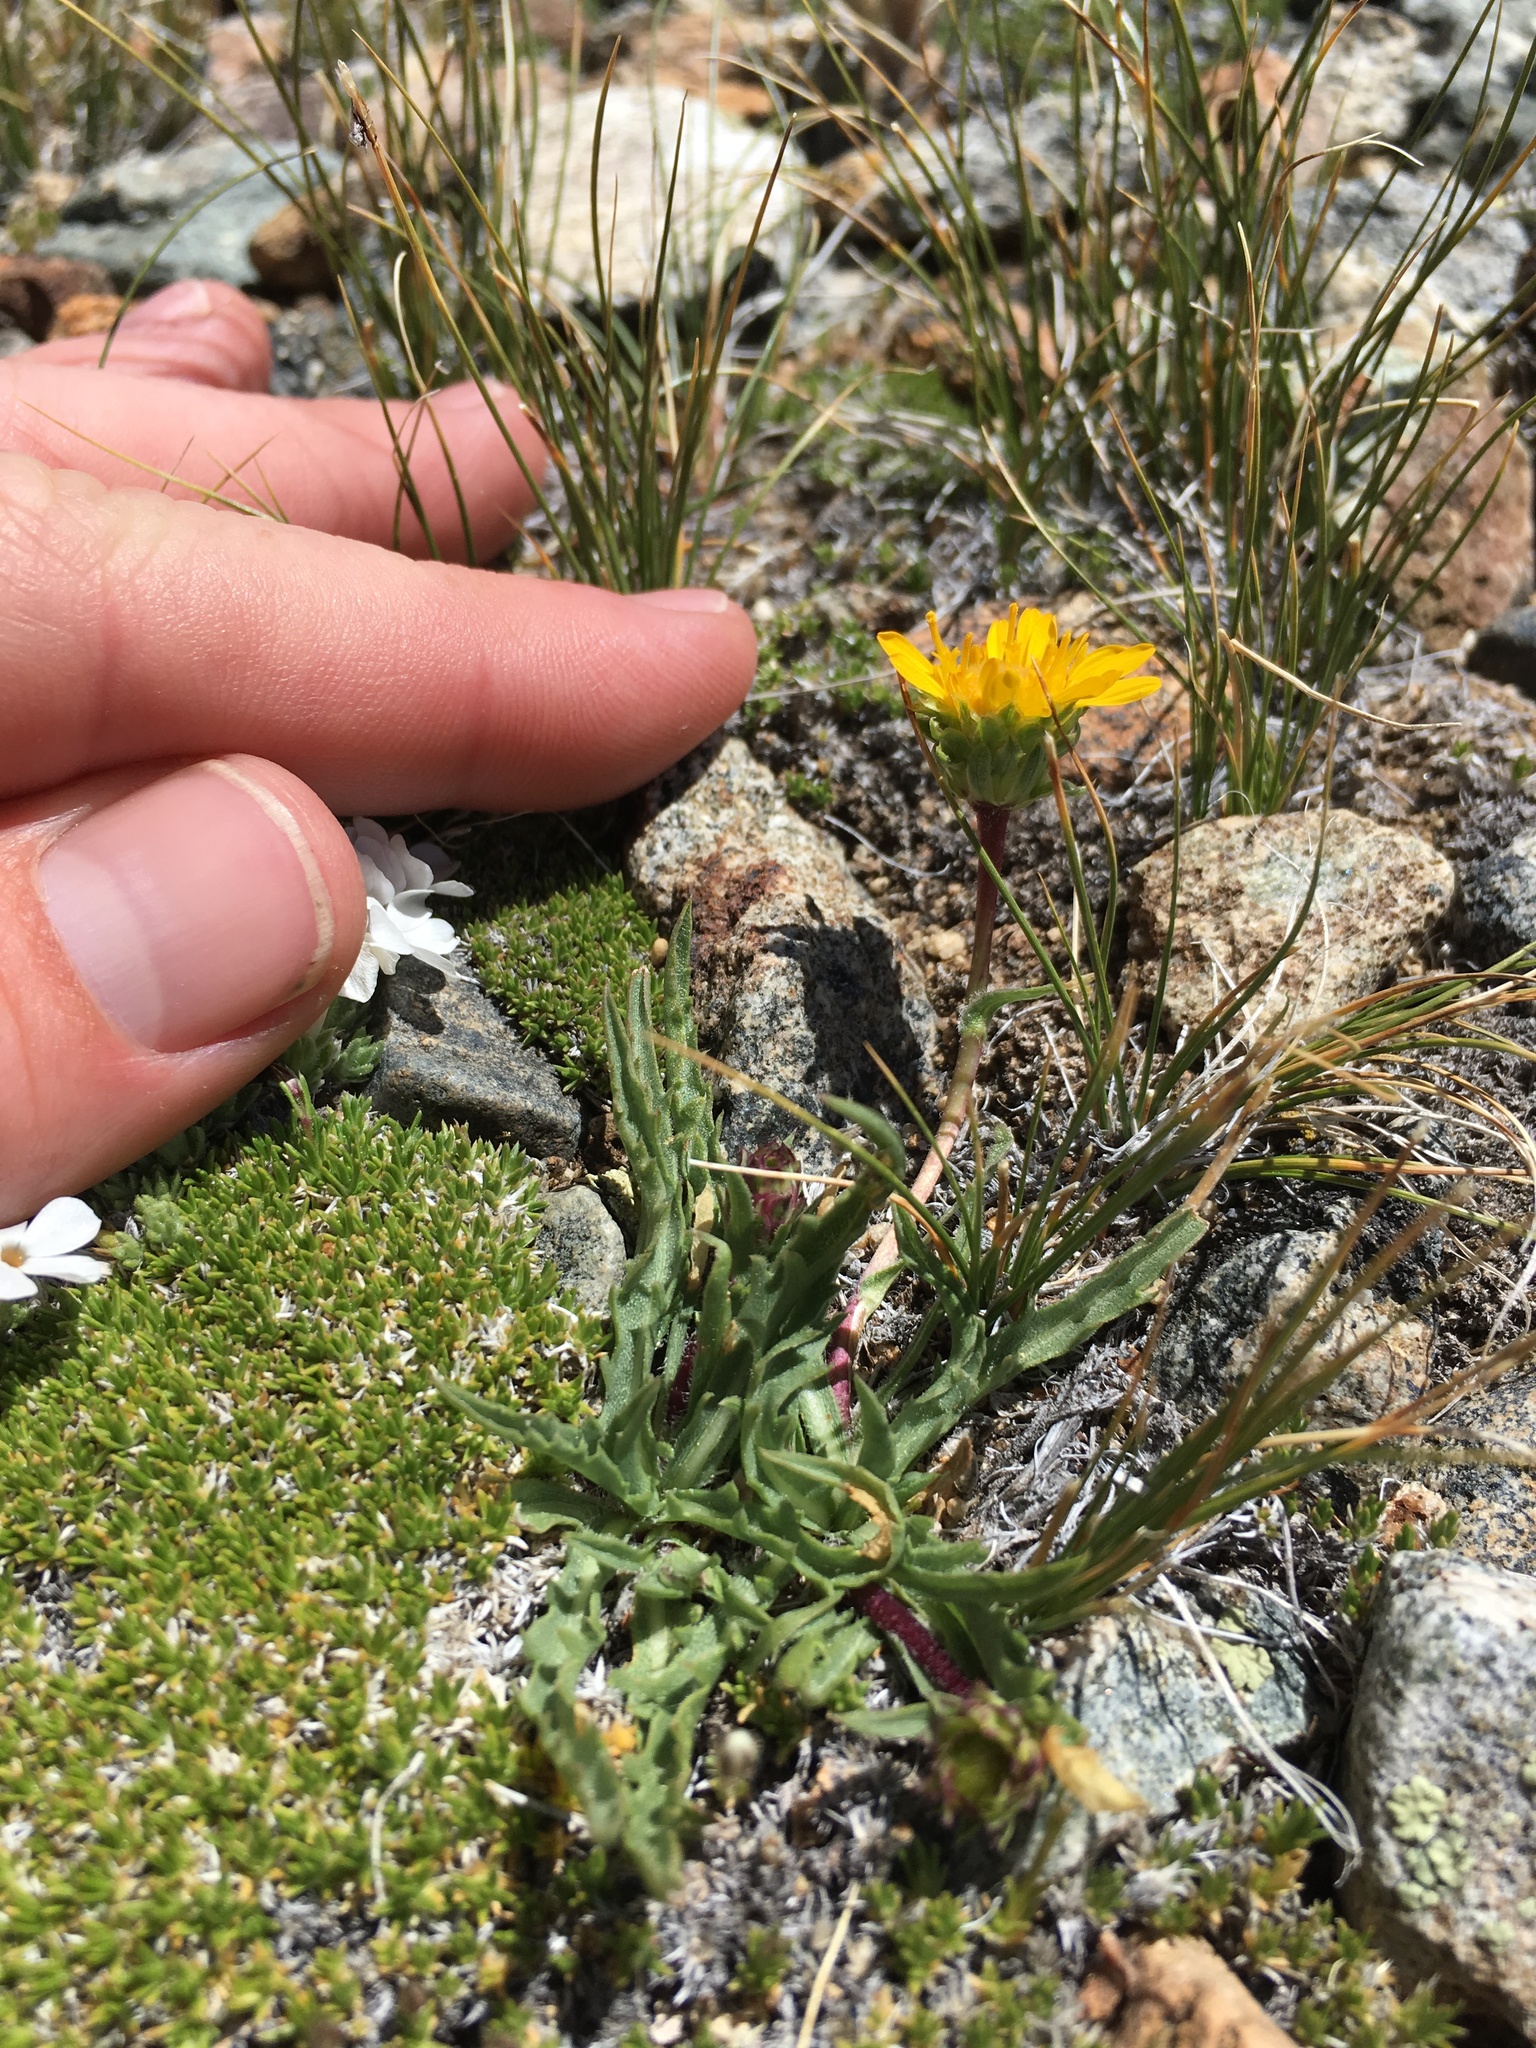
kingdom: Plantae
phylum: Tracheophyta
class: Magnoliopsida
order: Asterales
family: Asteraceae
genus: Pyrrocoma
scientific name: Pyrrocoma apargioides
